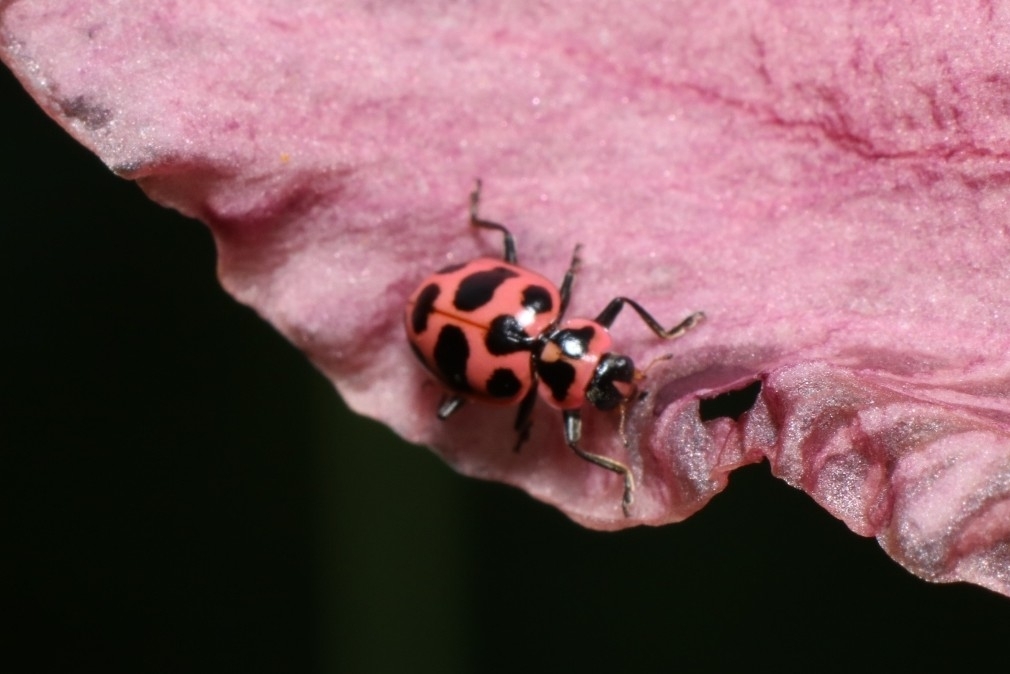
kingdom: Animalia
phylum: Arthropoda
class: Insecta
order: Coleoptera
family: Coccinellidae
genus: Coleomegilla
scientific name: Coleomegilla maculata
